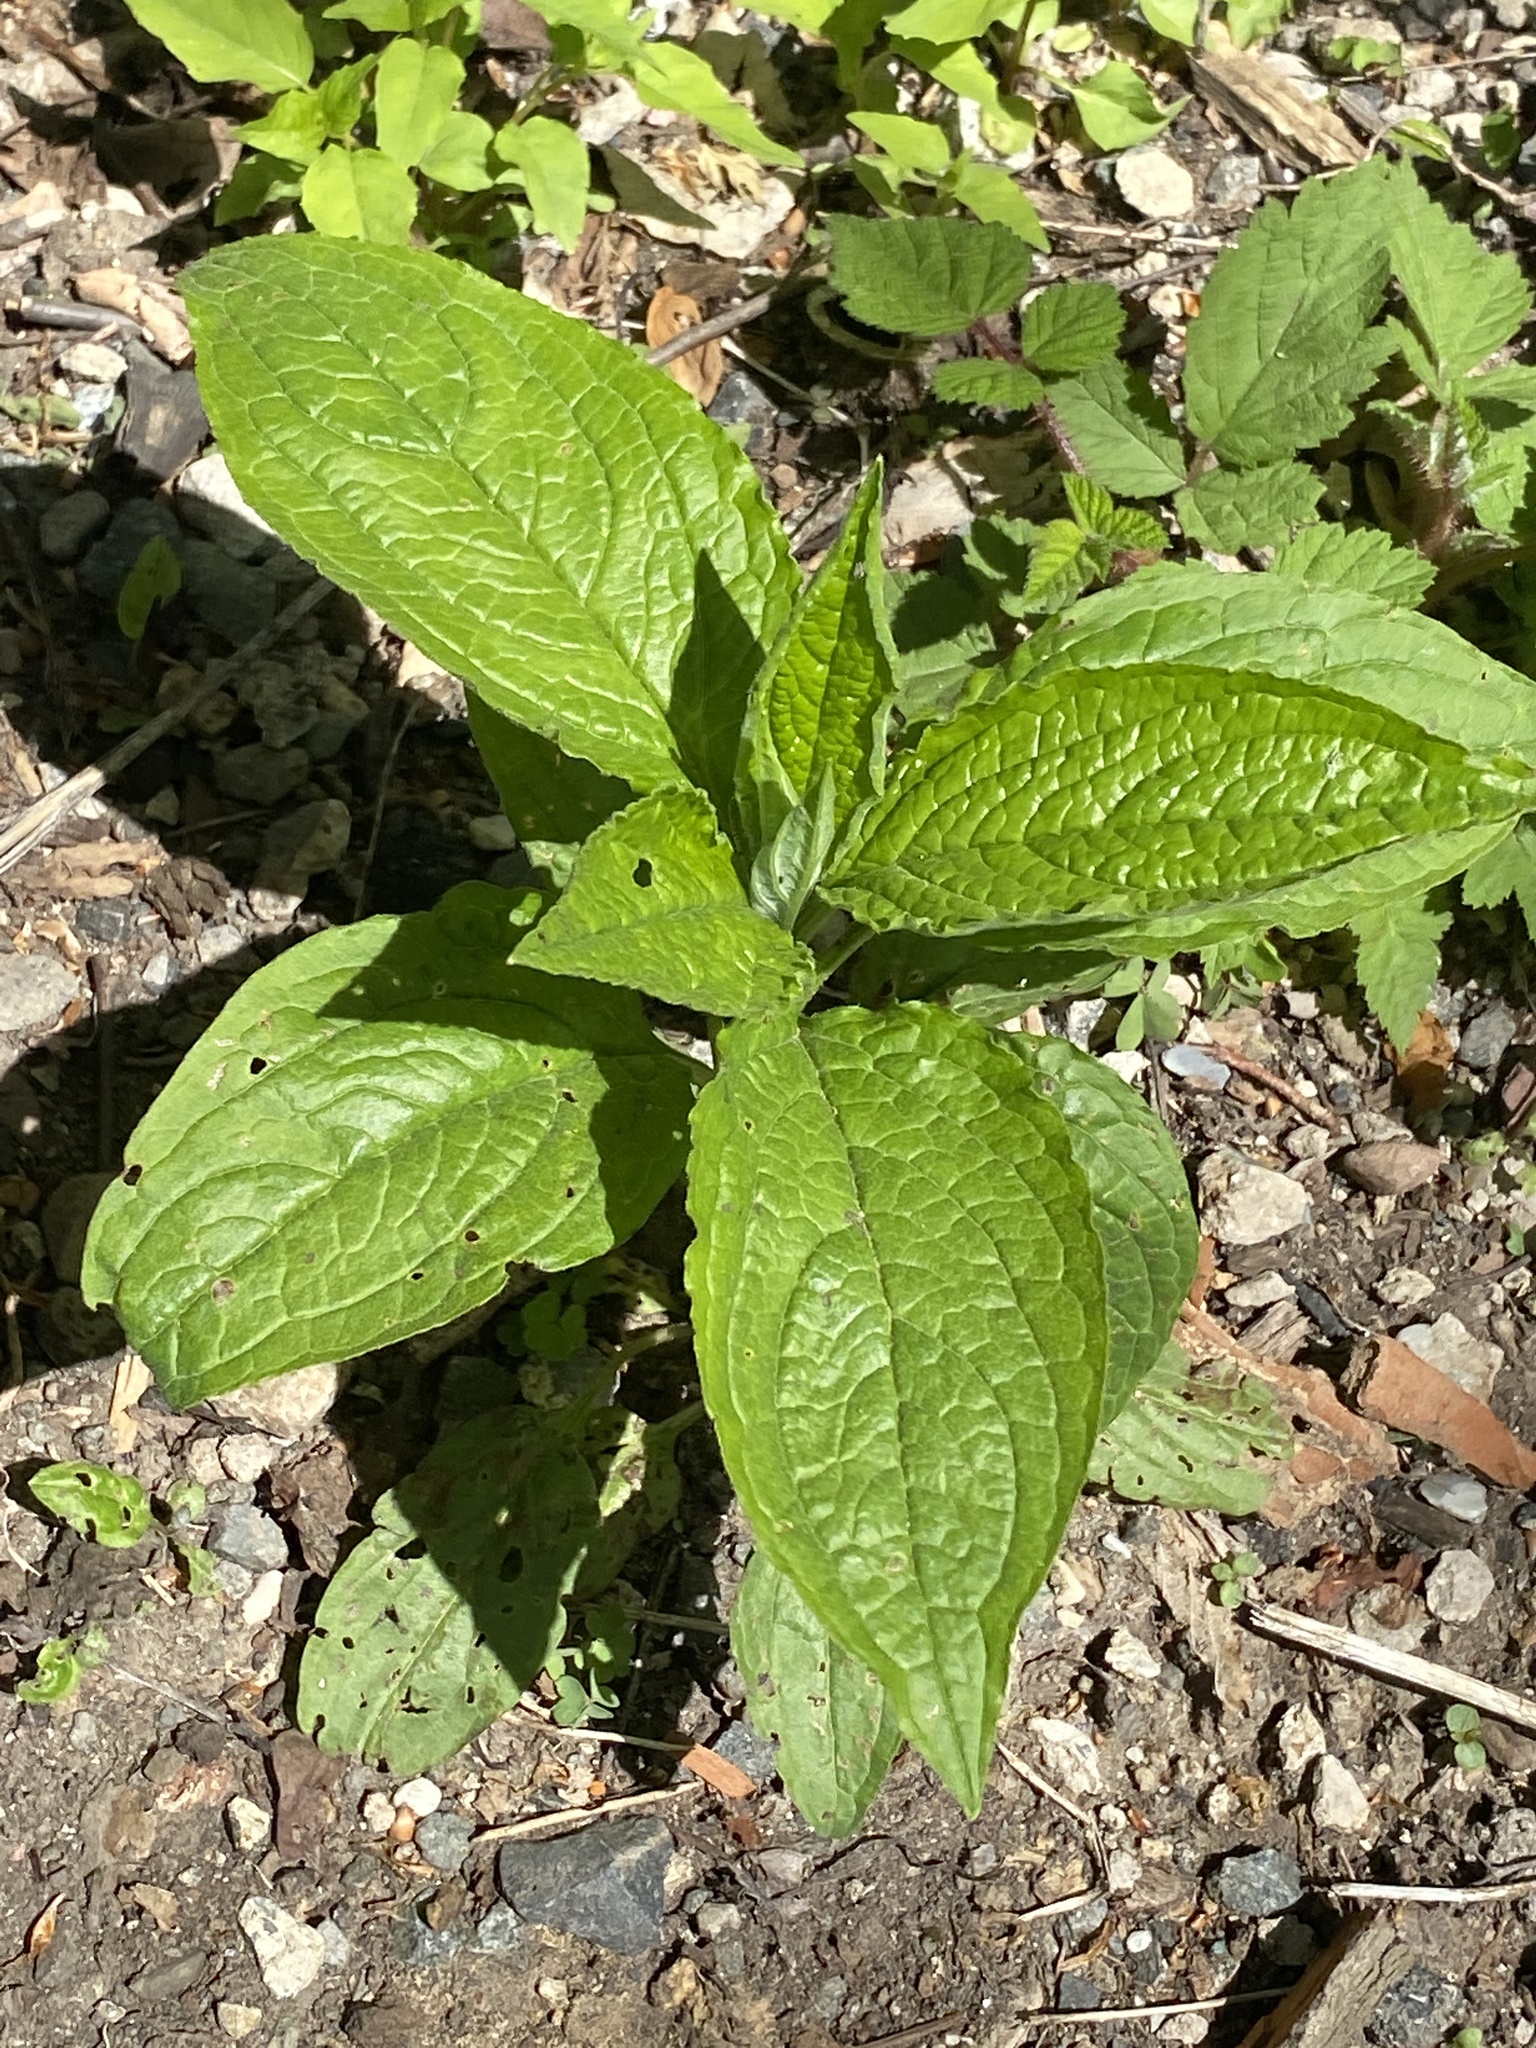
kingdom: Plantae
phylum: Tracheophyta
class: Magnoliopsida
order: Boraginales
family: Boraginaceae
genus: Hackelia
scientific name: Hackelia virginiana
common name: Beggar's-lice
